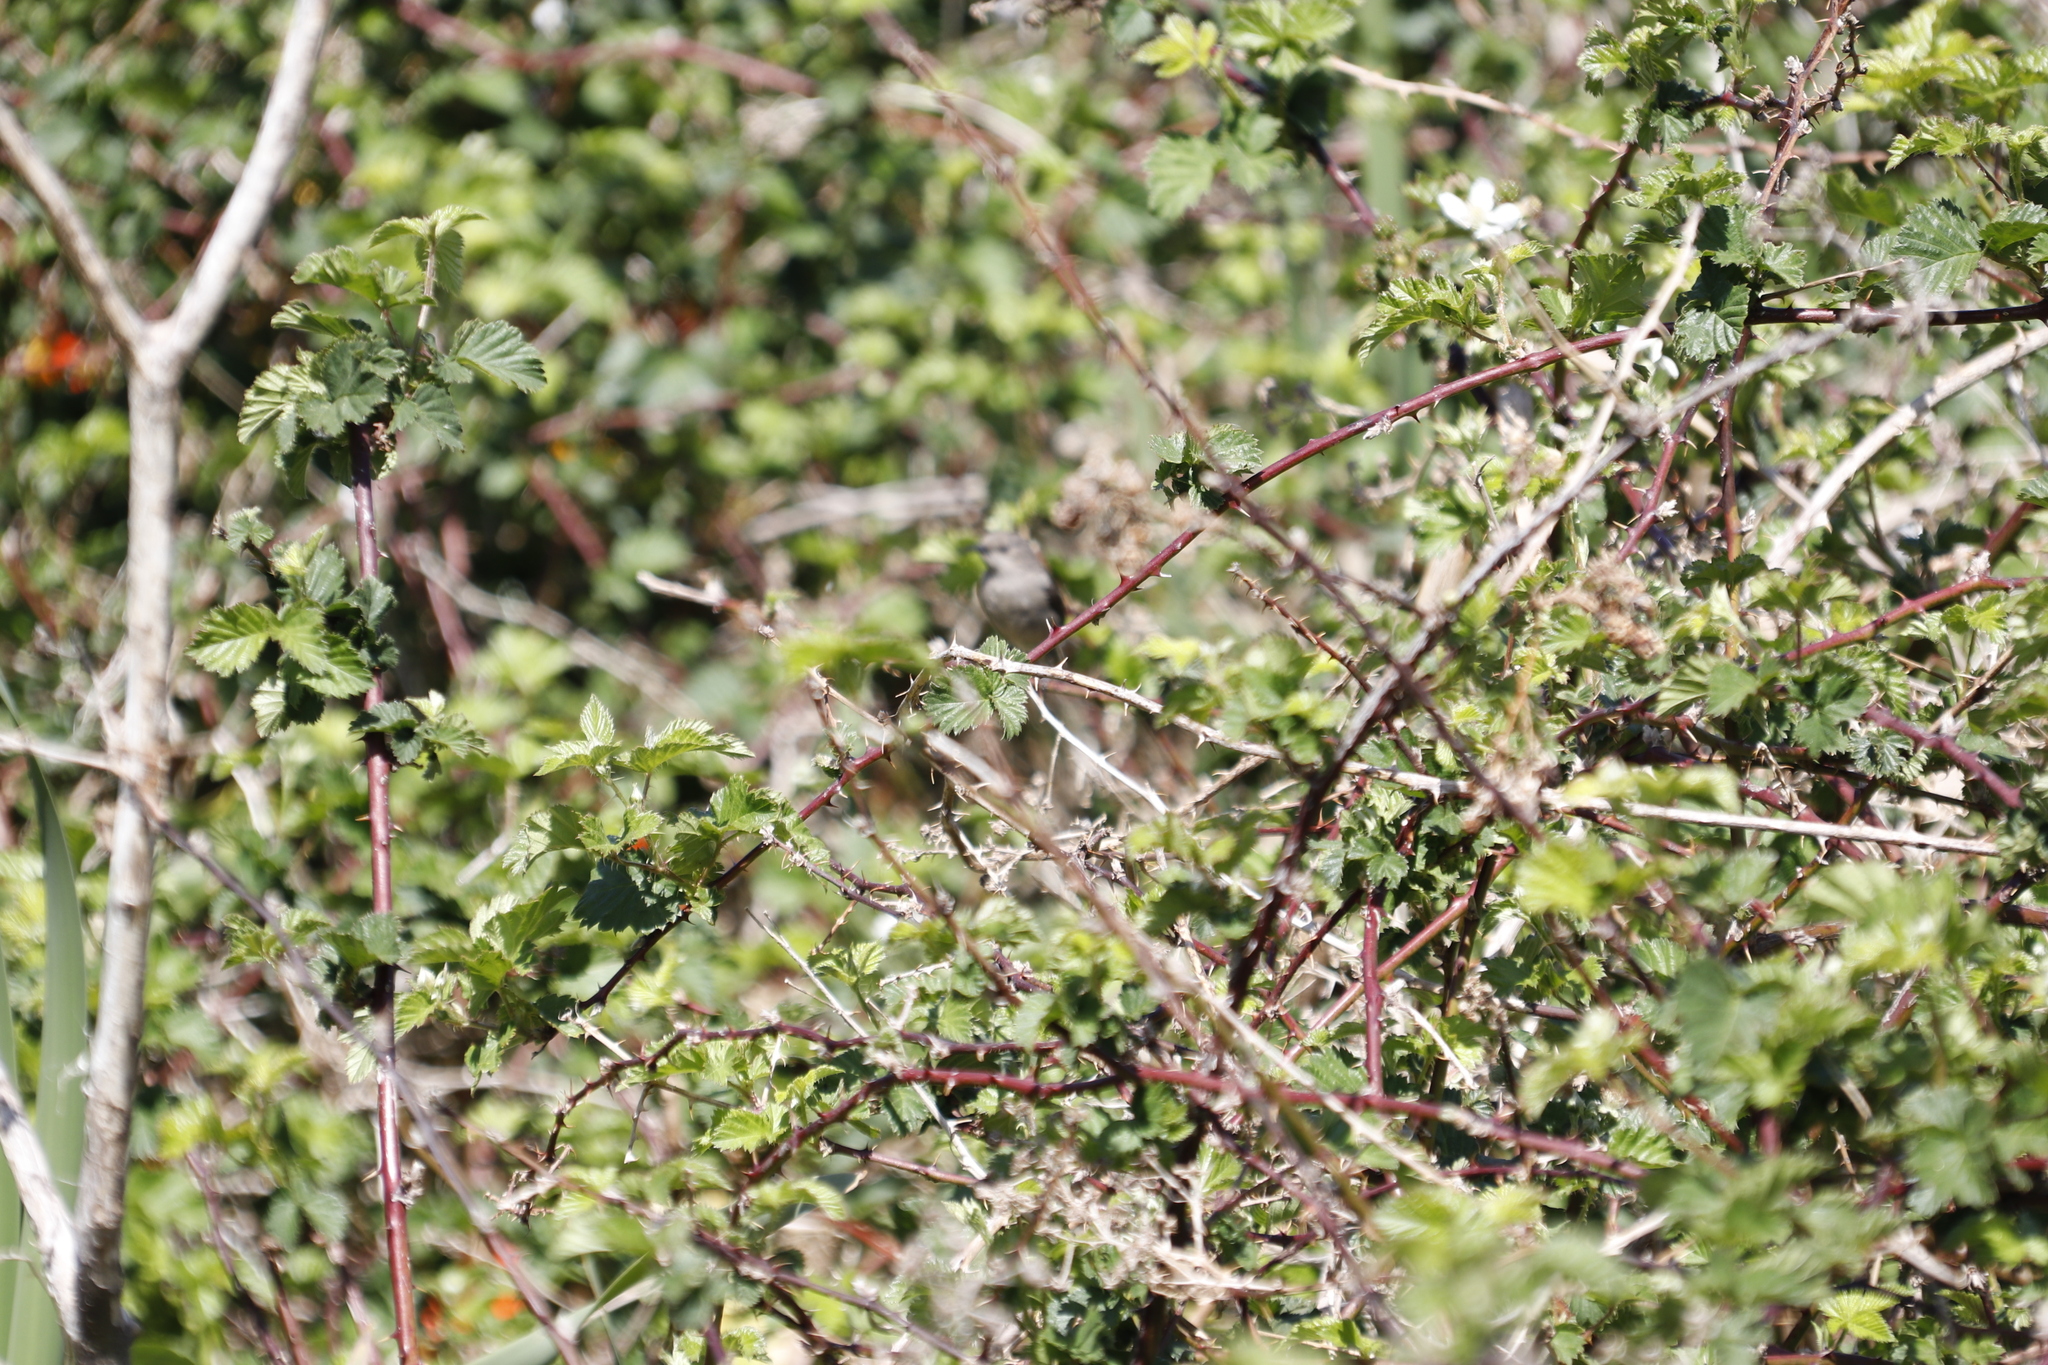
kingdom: Animalia
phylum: Chordata
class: Aves
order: Passeriformes
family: Nectariniidae
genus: Cinnyris
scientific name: Cinnyris chalybeus
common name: Southern double-collared sunbird
